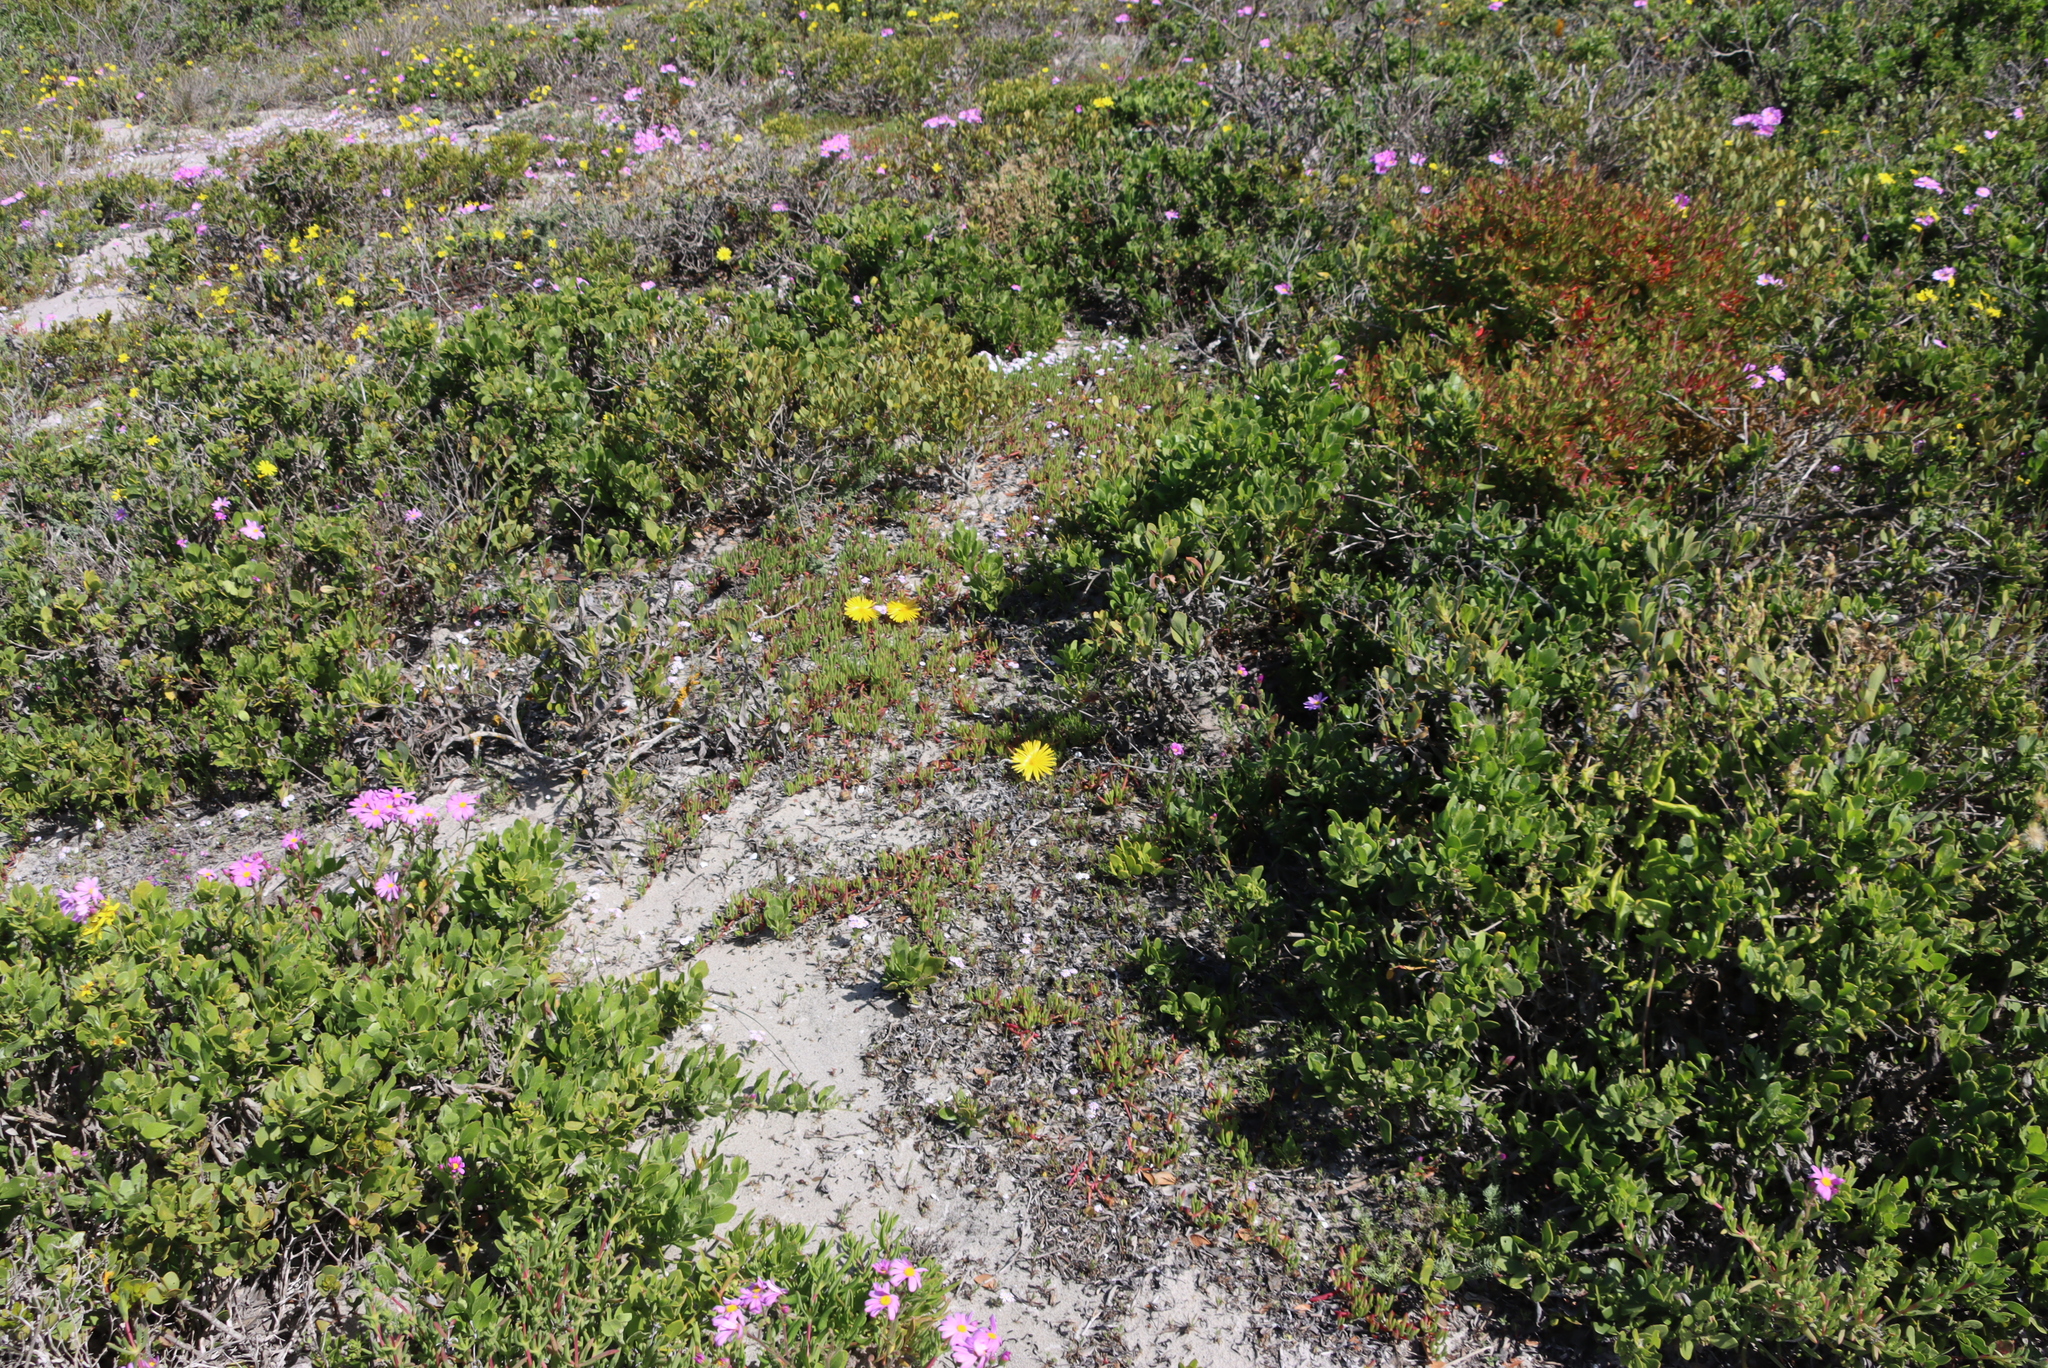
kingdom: Plantae
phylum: Tracheophyta
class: Magnoliopsida
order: Caryophyllales
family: Aizoaceae
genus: Jordaaniella
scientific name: Jordaaniella dubia
